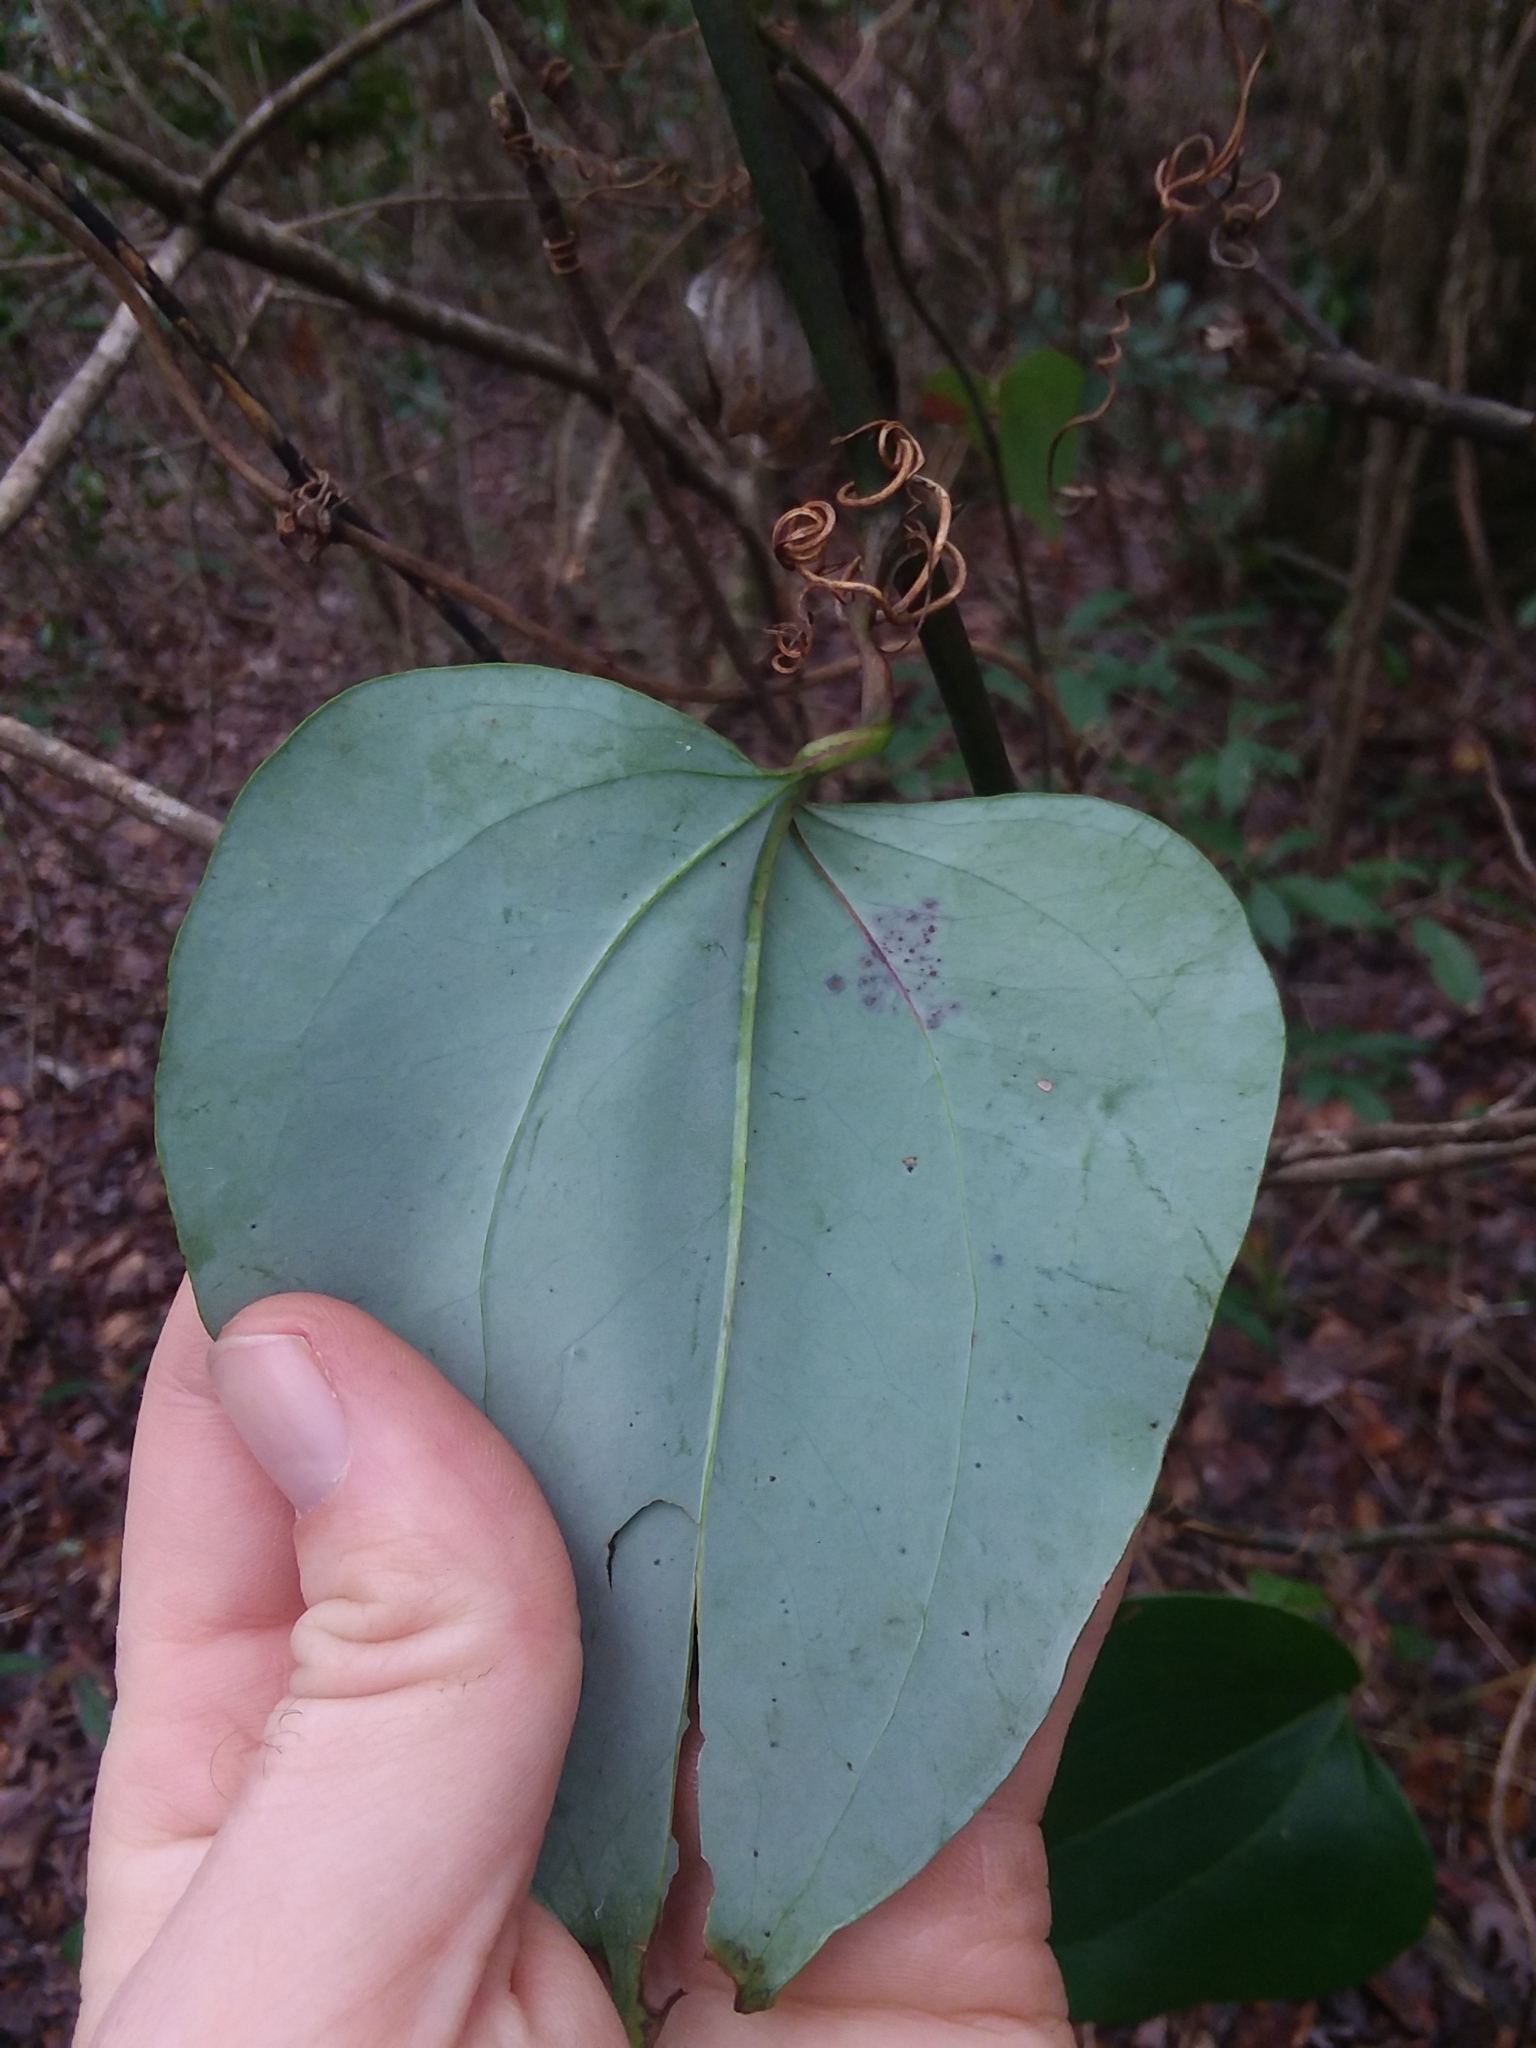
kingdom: Plantae
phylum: Tracheophyta
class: Liliopsida
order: Liliales
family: Smilacaceae
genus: Smilax
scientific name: Smilax glauca
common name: Cat greenbrier
